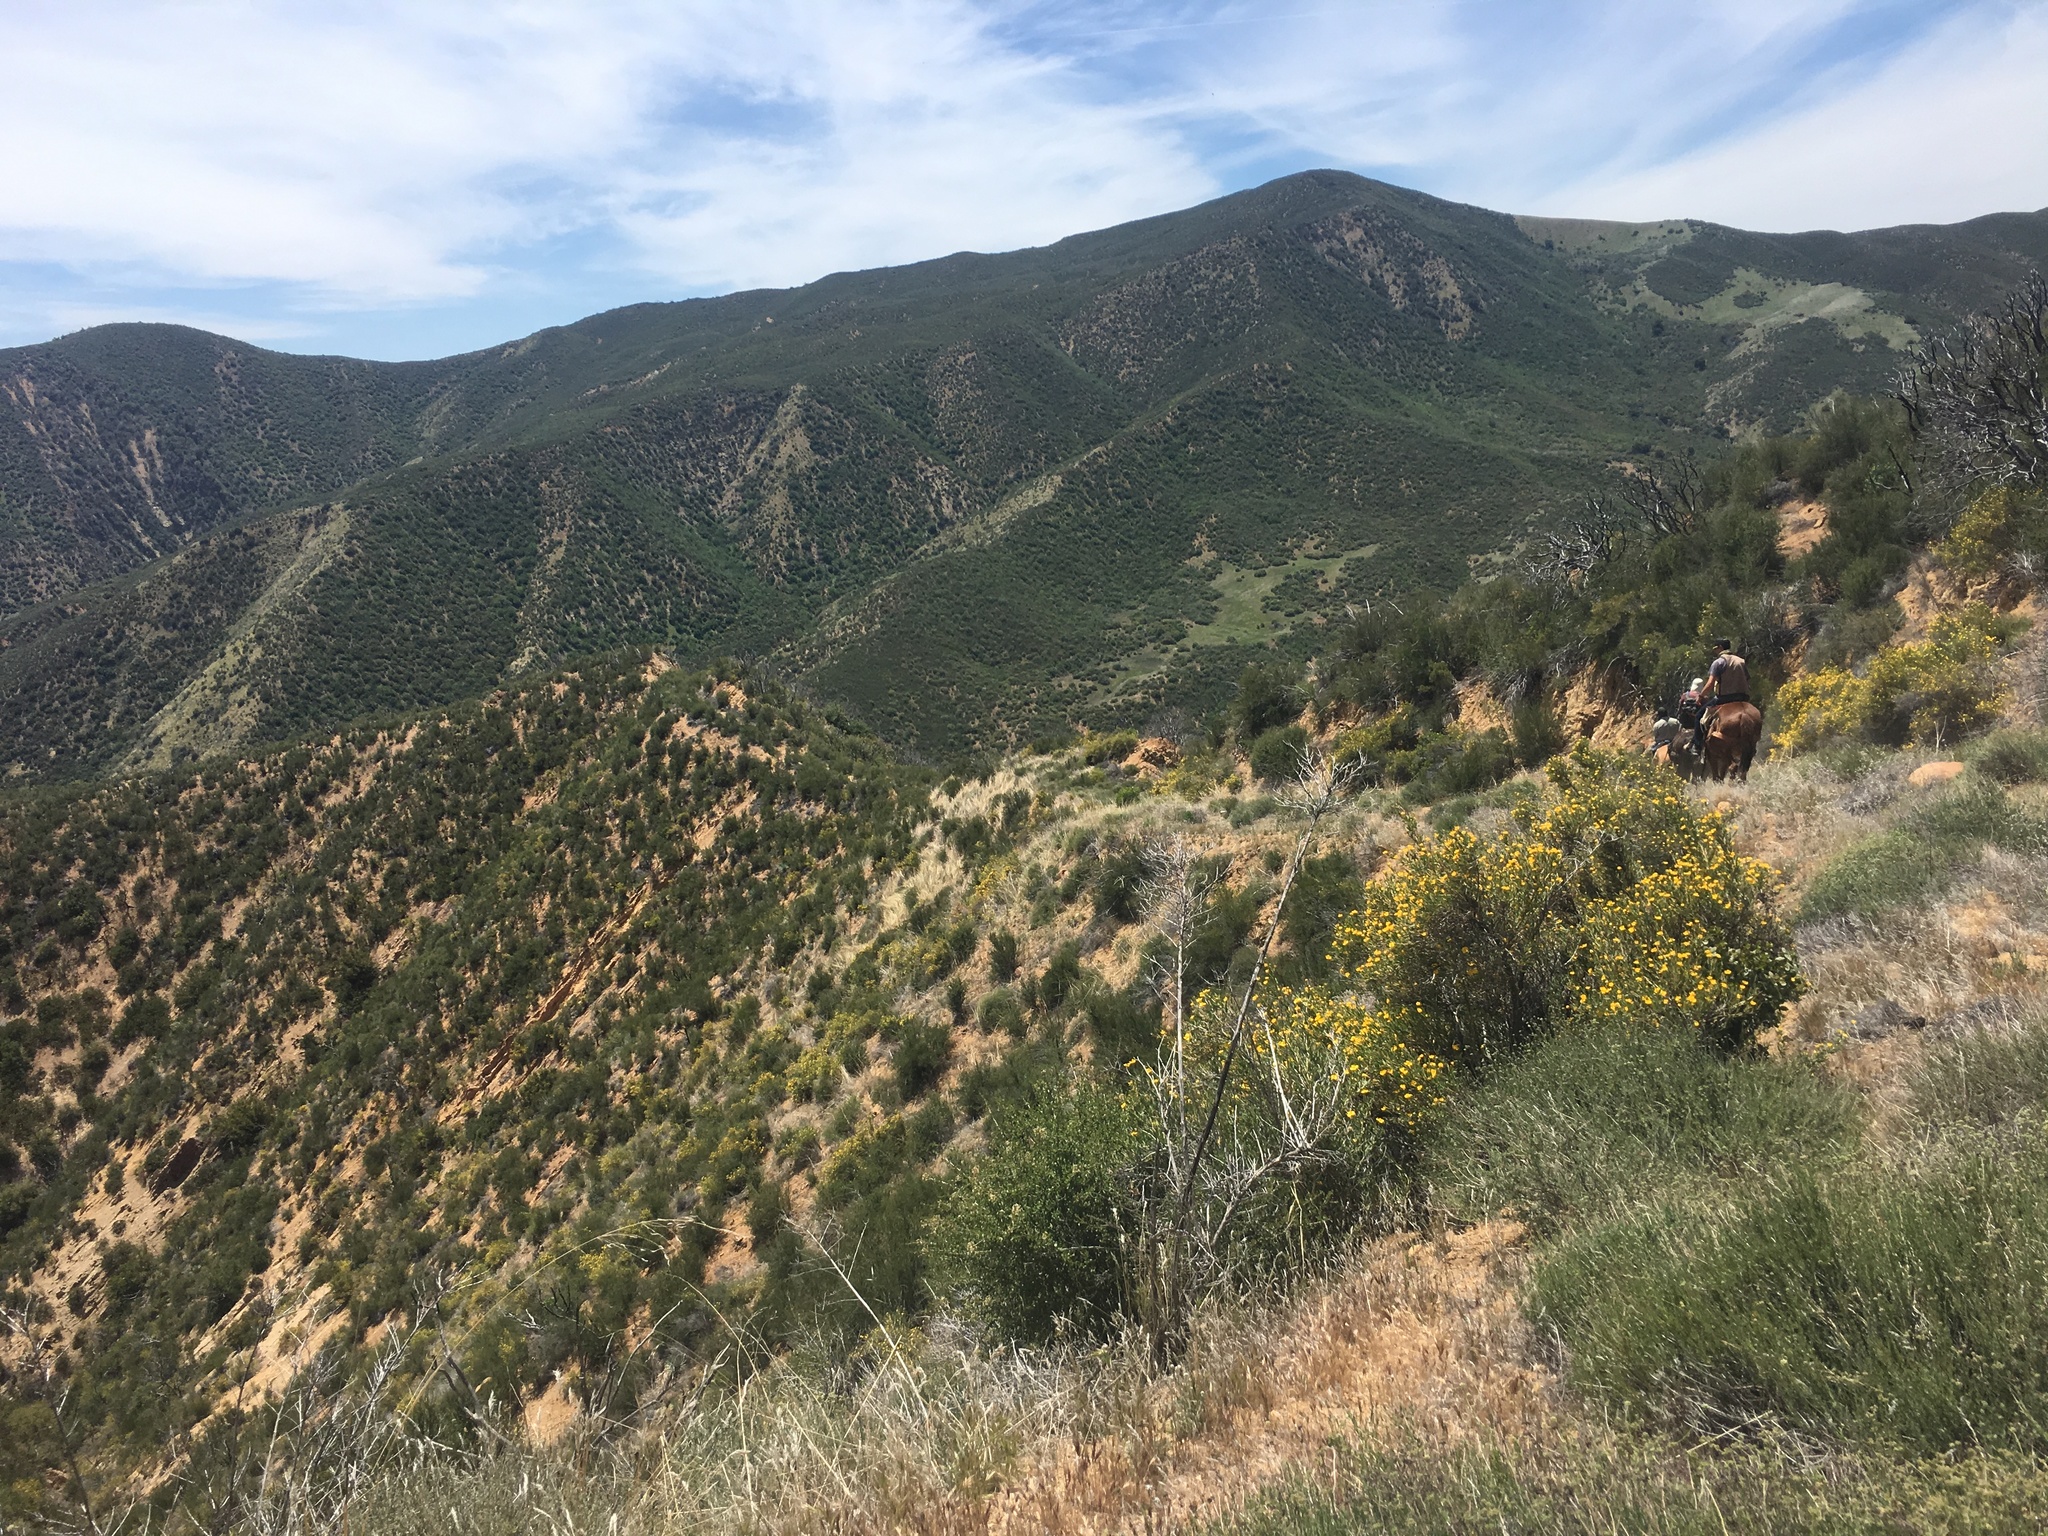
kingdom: Plantae
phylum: Tracheophyta
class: Magnoliopsida
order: Ranunculales
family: Papaveraceae
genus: Dendromecon
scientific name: Dendromecon rigida
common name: Tree poppy
